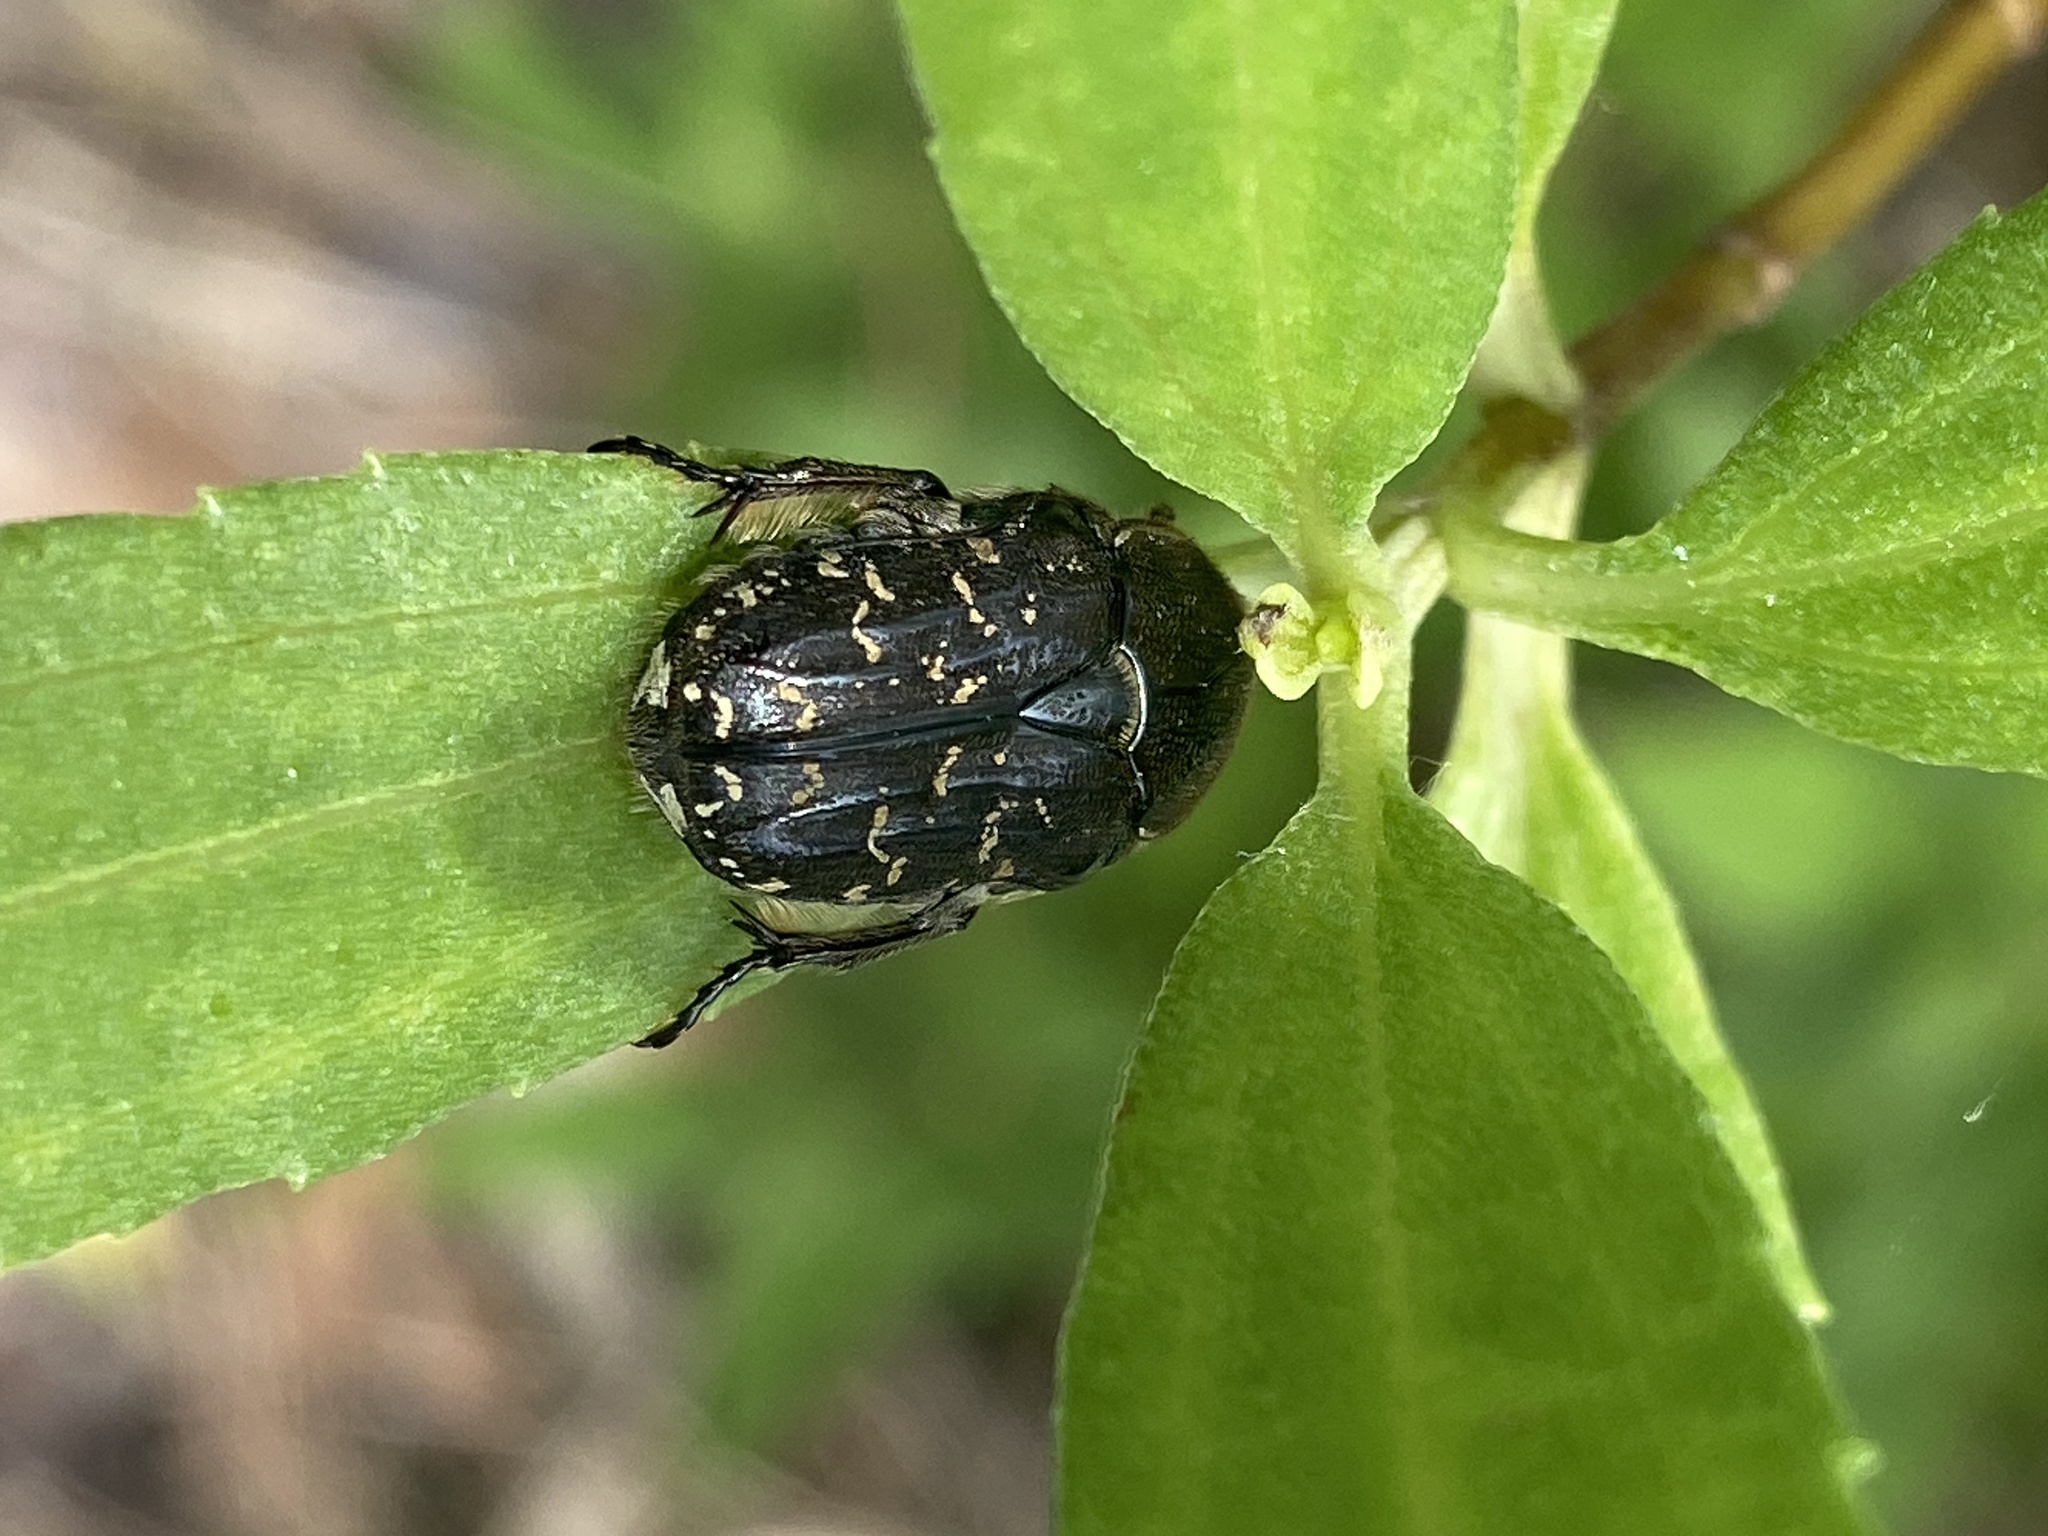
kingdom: Animalia
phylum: Arthropoda
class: Insecta
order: Coleoptera
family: Scarabaeidae
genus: Euphoria
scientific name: Euphoria sepulcralis
